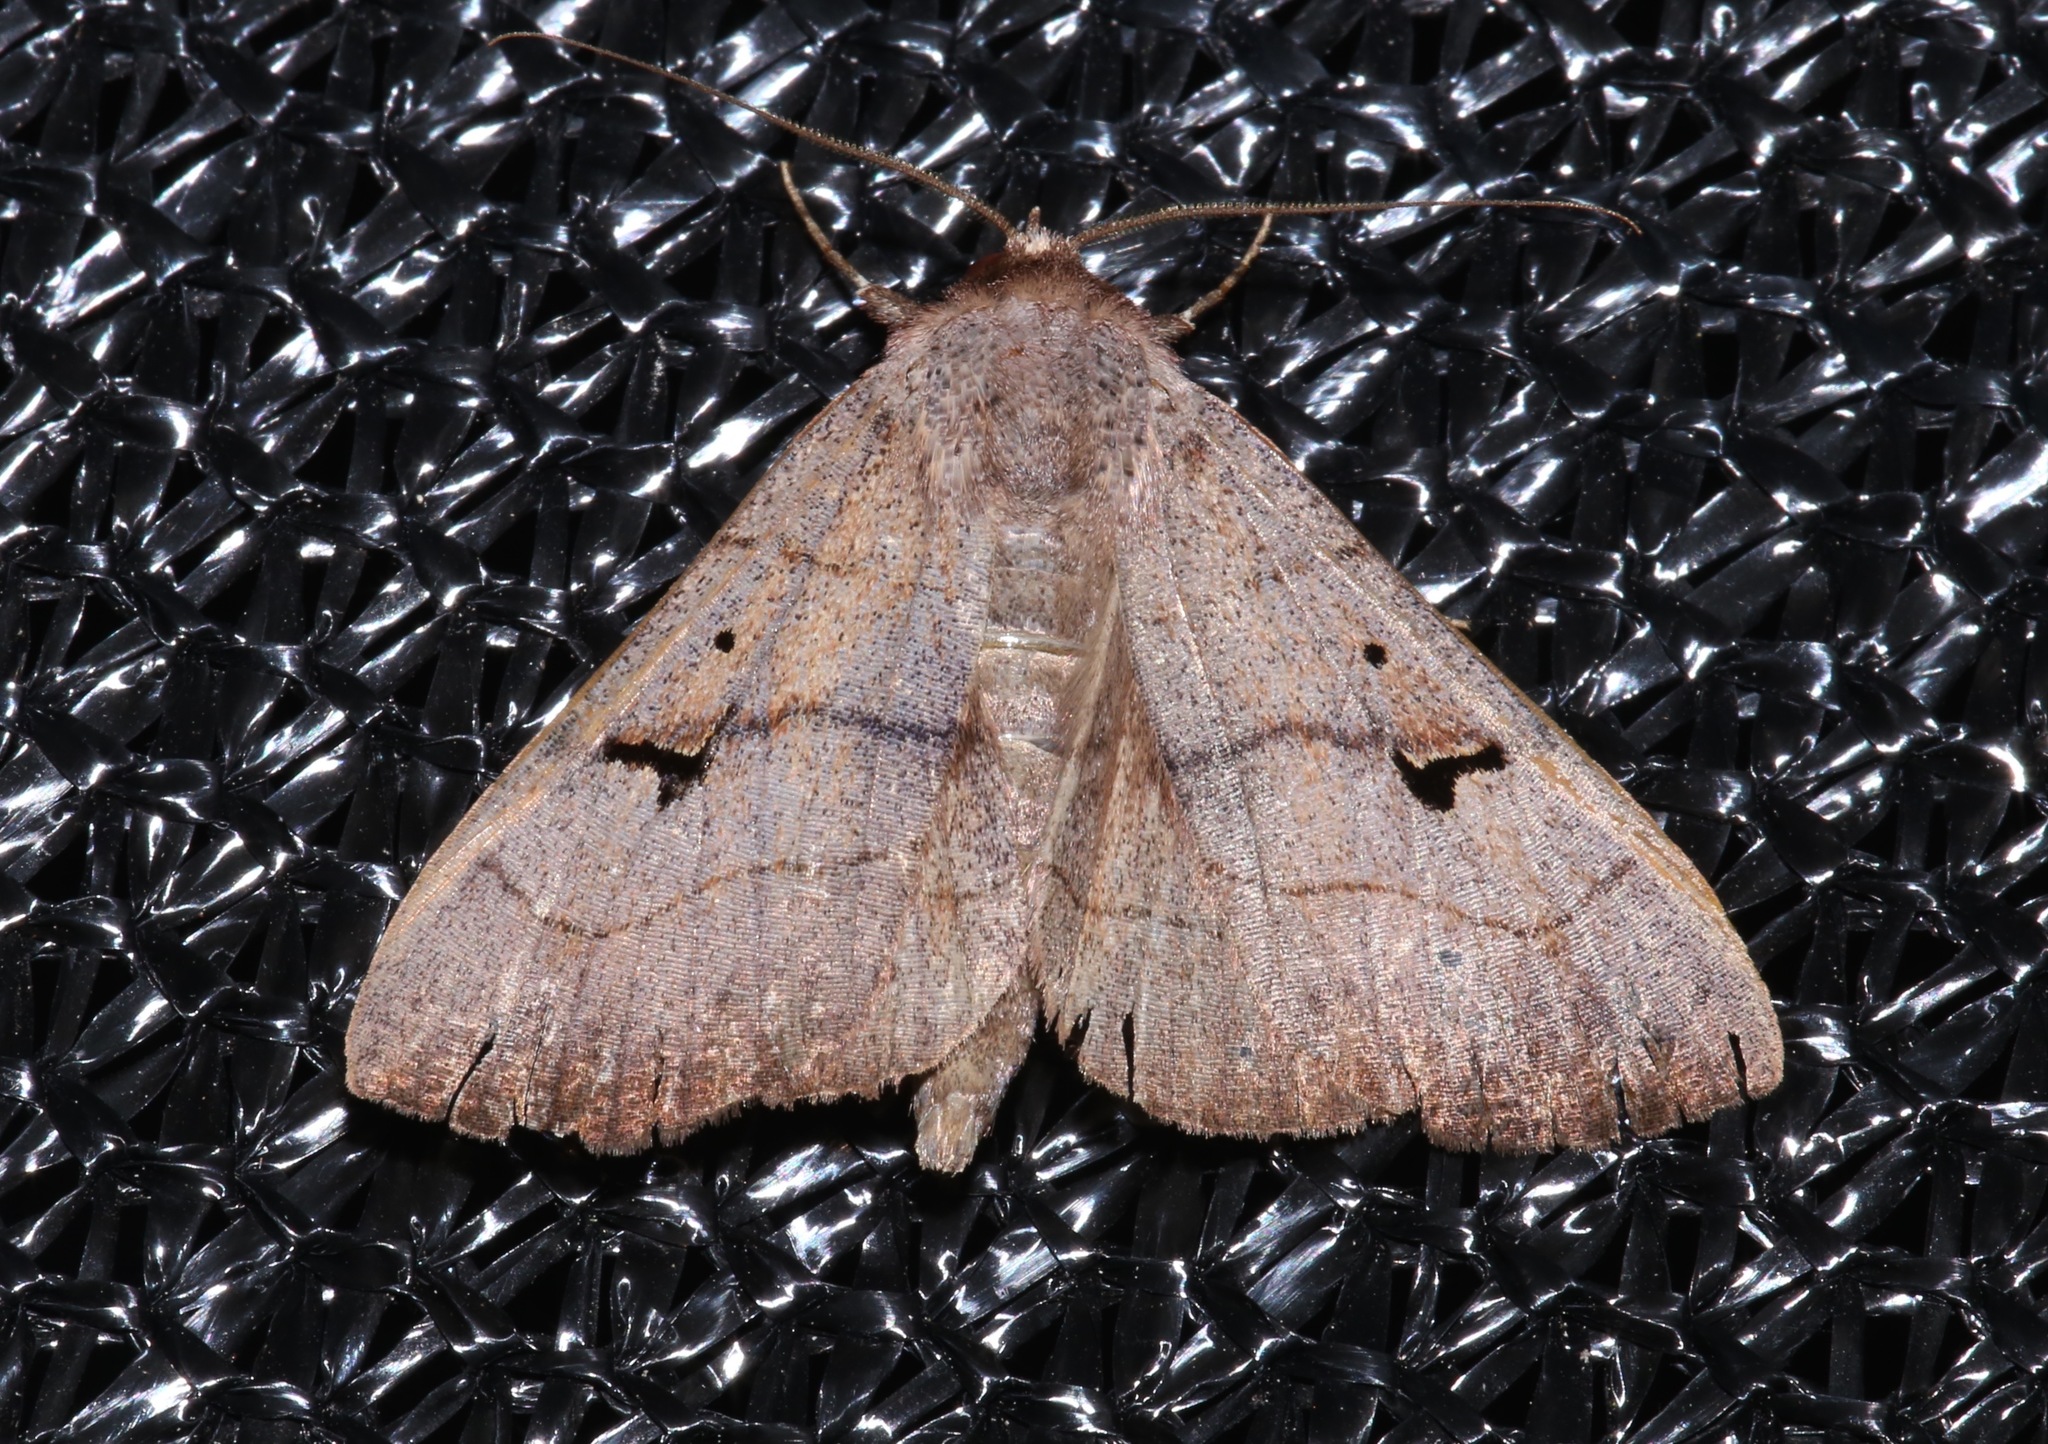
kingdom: Animalia
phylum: Arthropoda
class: Insecta
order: Lepidoptera
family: Erebidae
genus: Panopoda
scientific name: Panopoda carneicosta
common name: Brown panopoda moth
